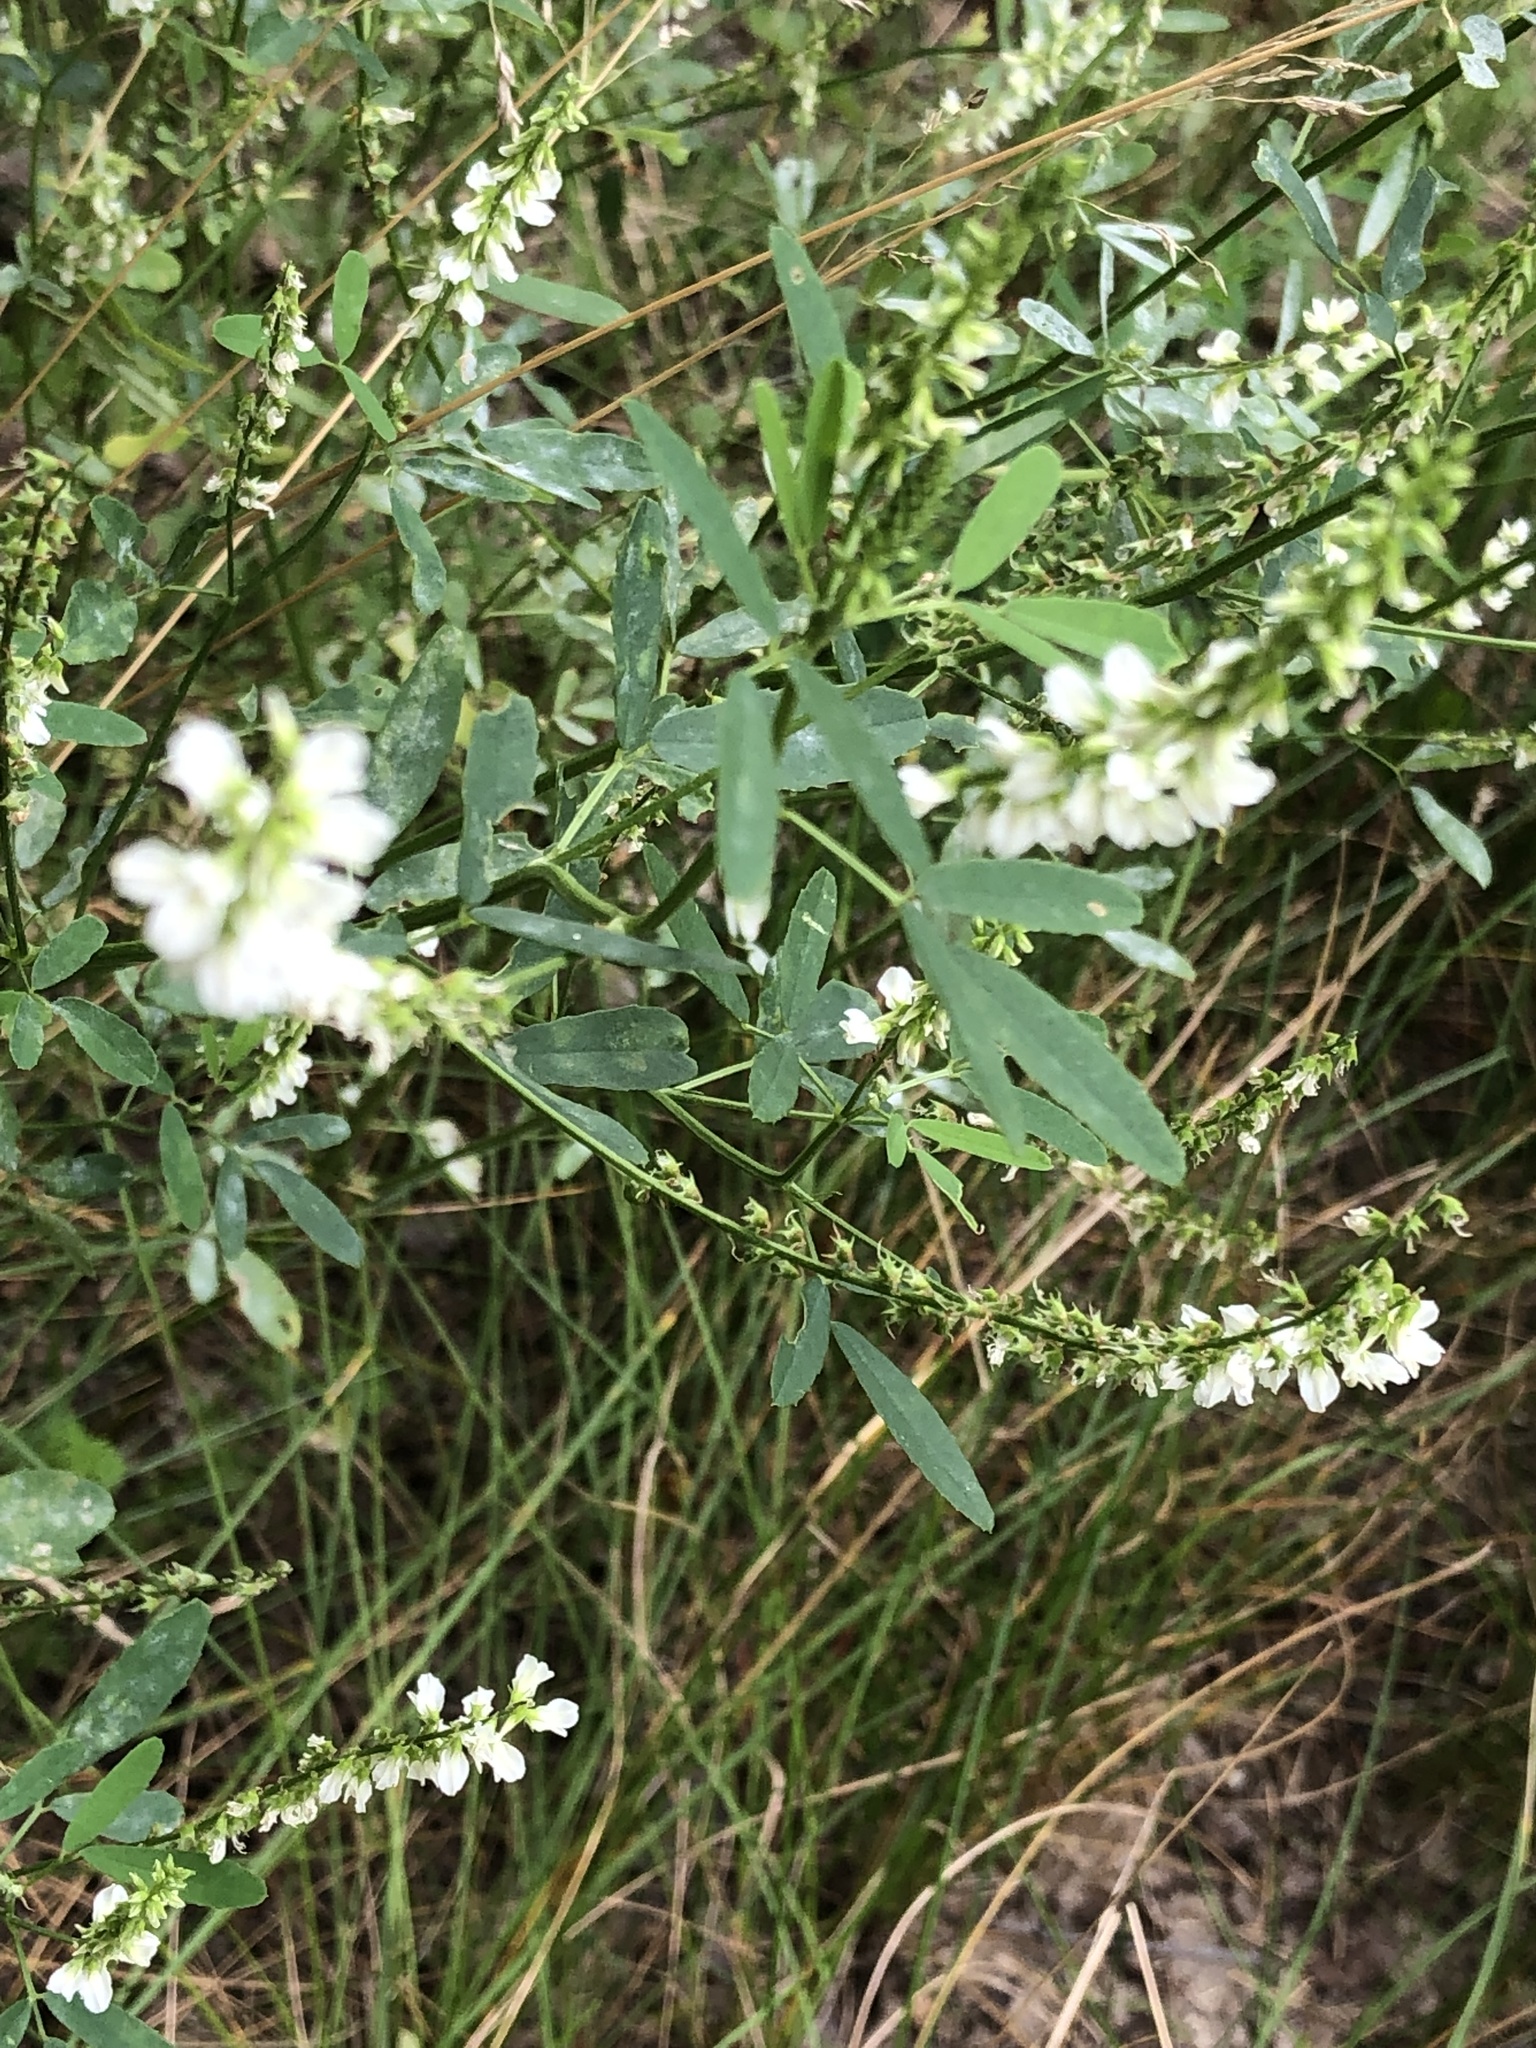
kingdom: Plantae
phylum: Tracheophyta
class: Magnoliopsida
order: Fabales
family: Fabaceae
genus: Melilotus
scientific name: Melilotus albus
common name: White melilot
